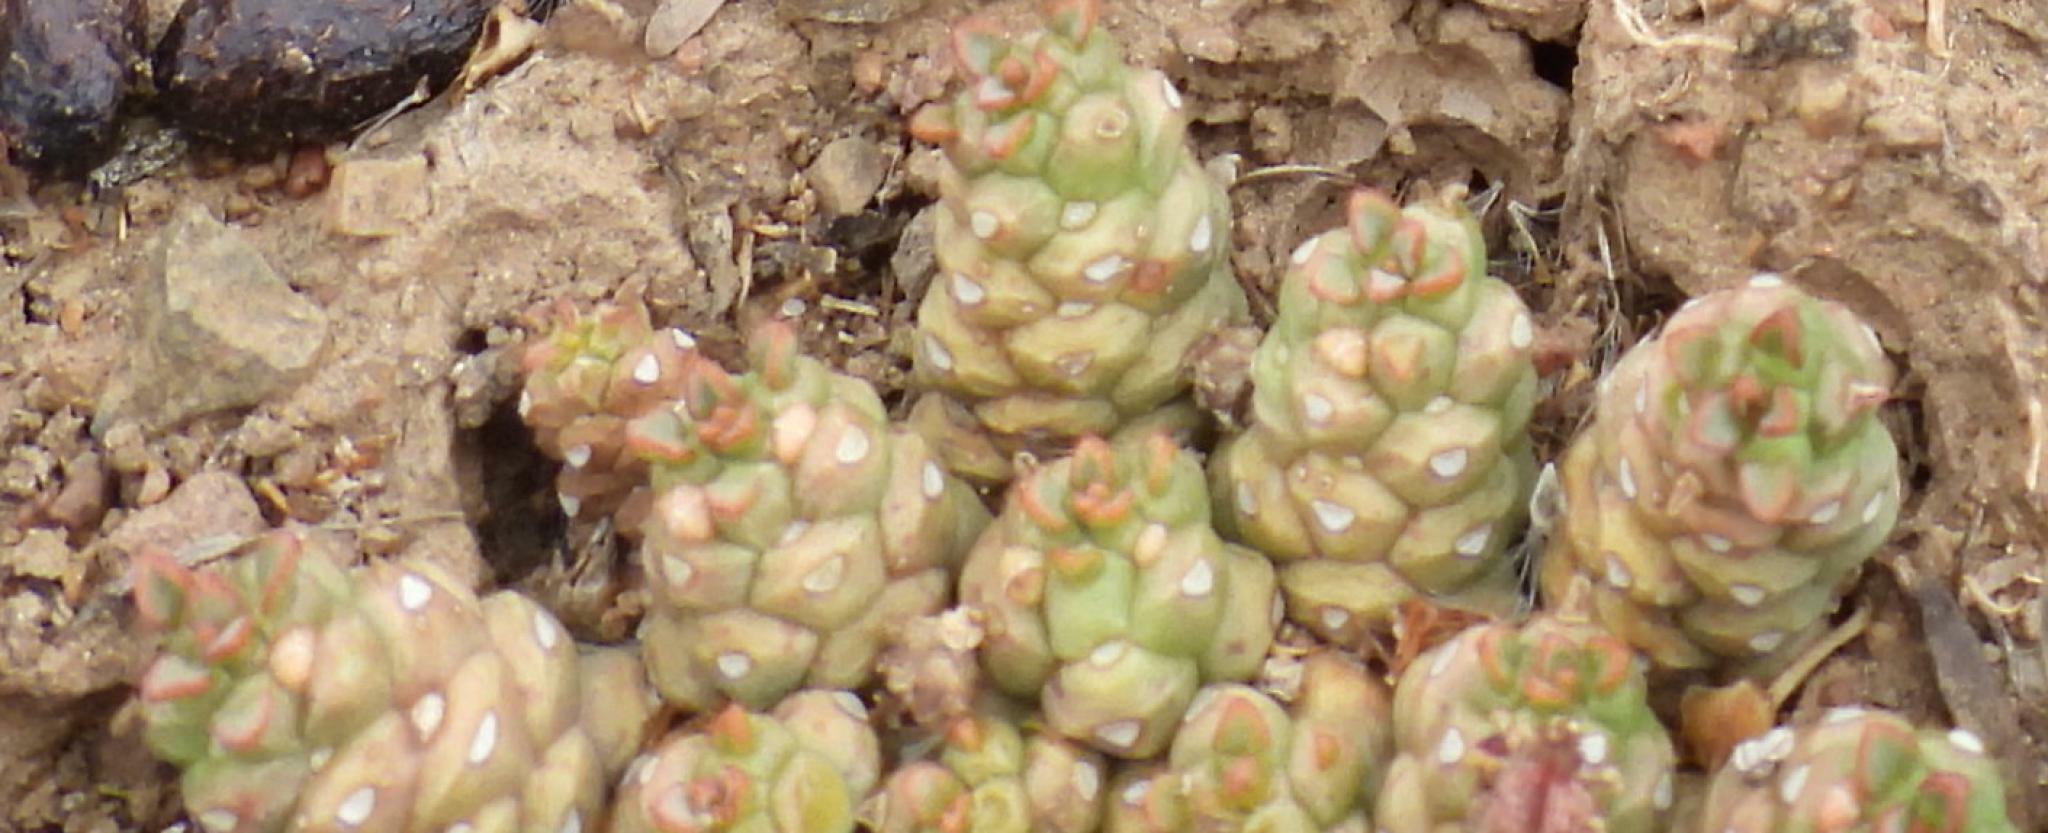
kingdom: Plantae
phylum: Tracheophyta
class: Magnoliopsida
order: Malpighiales
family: Euphorbiaceae
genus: Euphorbia
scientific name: Euphorbia tridentata
